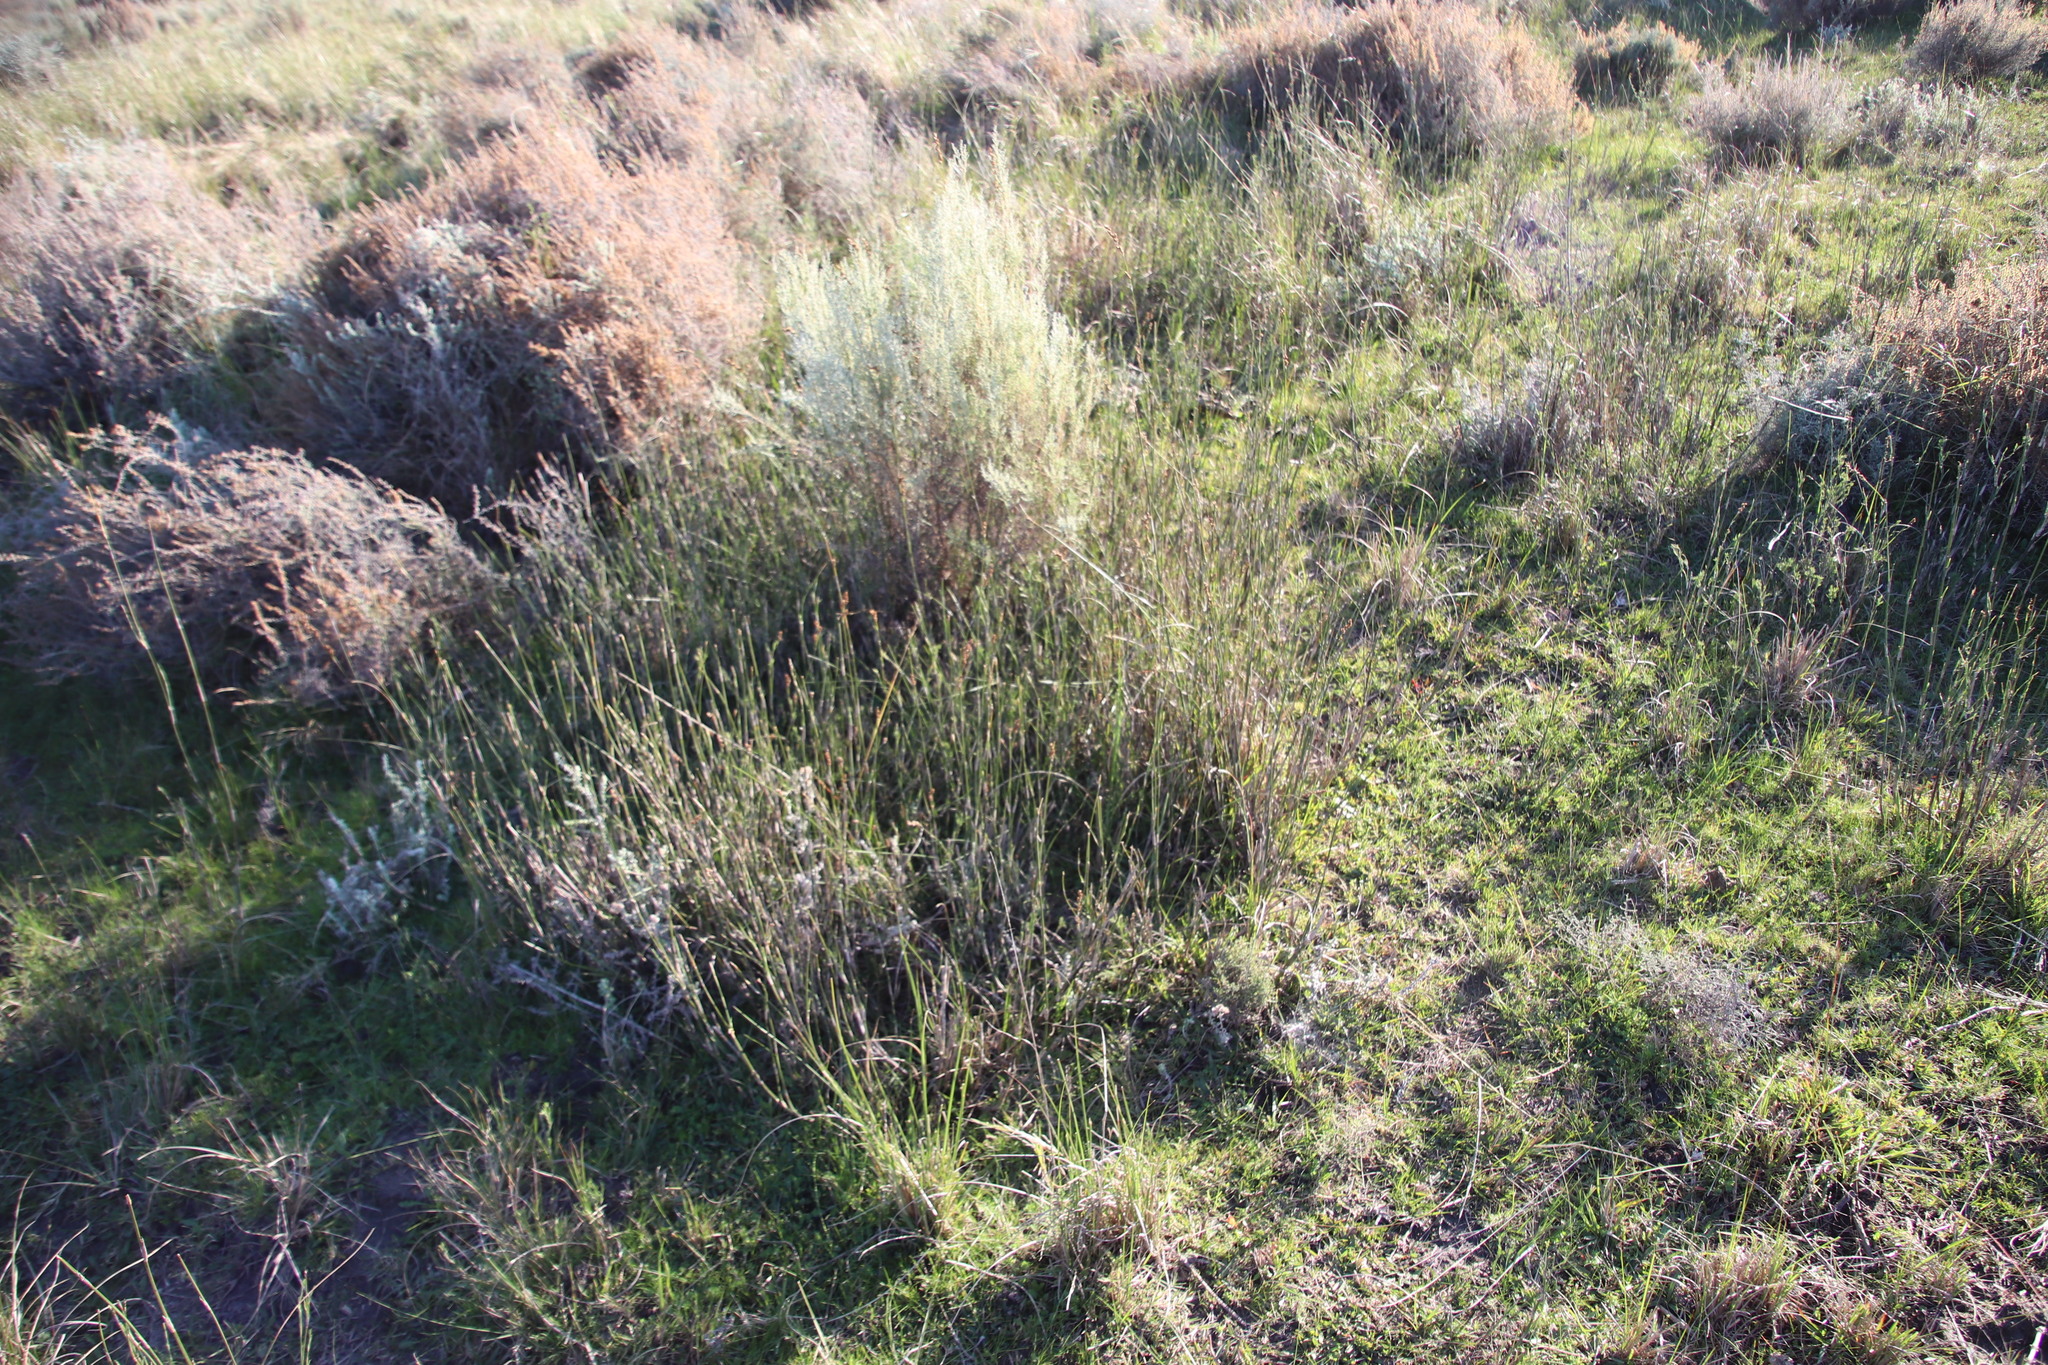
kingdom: Plantae
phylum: Tracheophyta
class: Liliopsida
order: Poales
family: Restionaceae
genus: Restio
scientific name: Restio tetragonus
